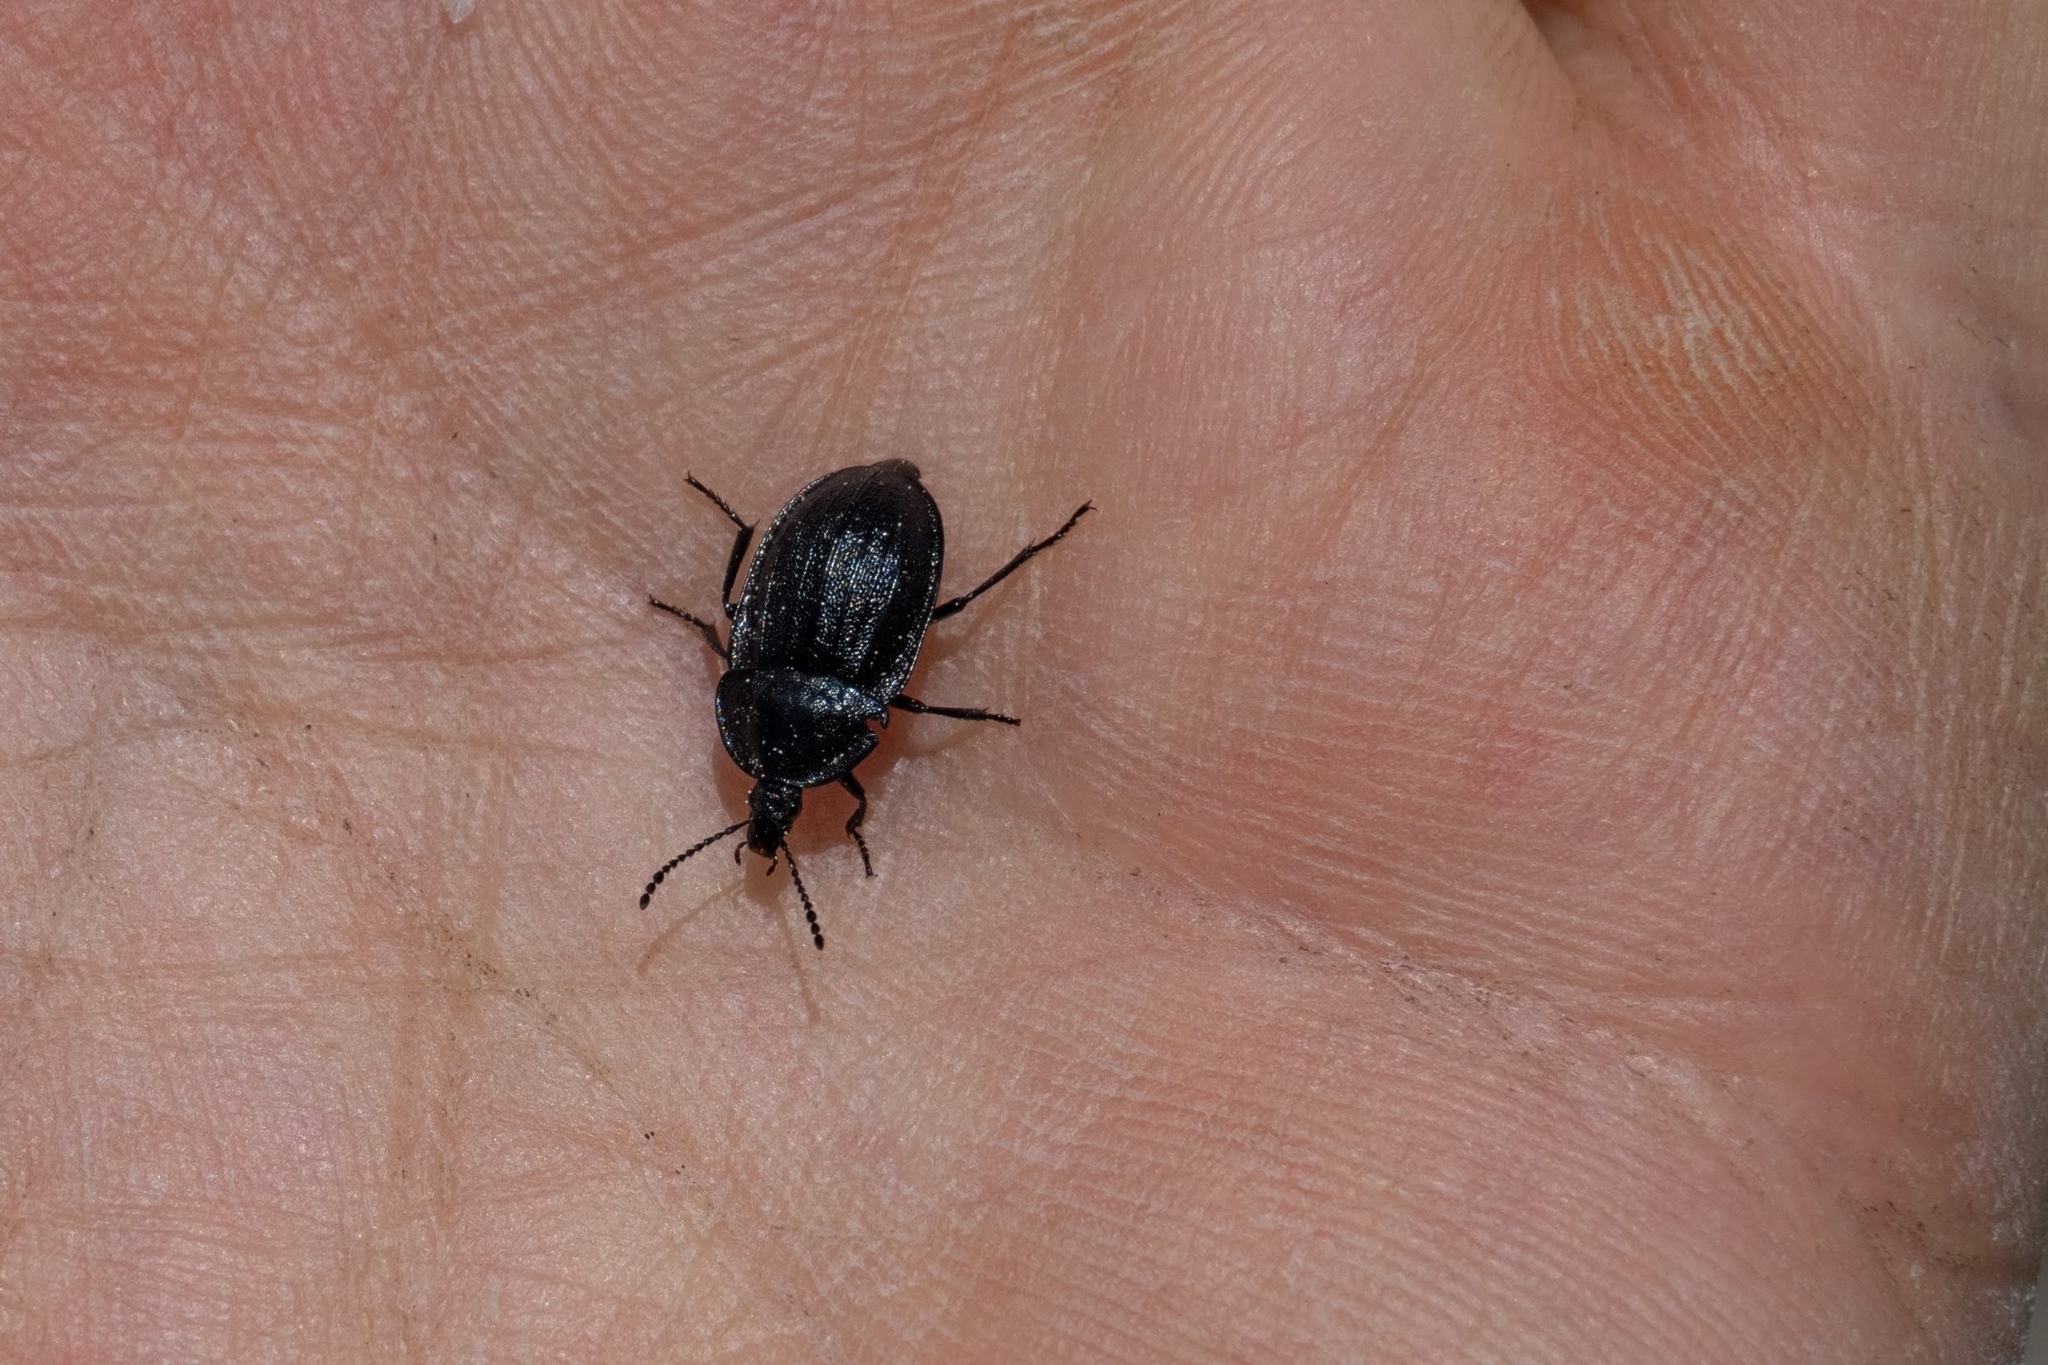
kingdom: Animalia
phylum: Arthropoda
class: Insecta
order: Coleoptera
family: Staphylinidae
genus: Silpha
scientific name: Silpha atrata
